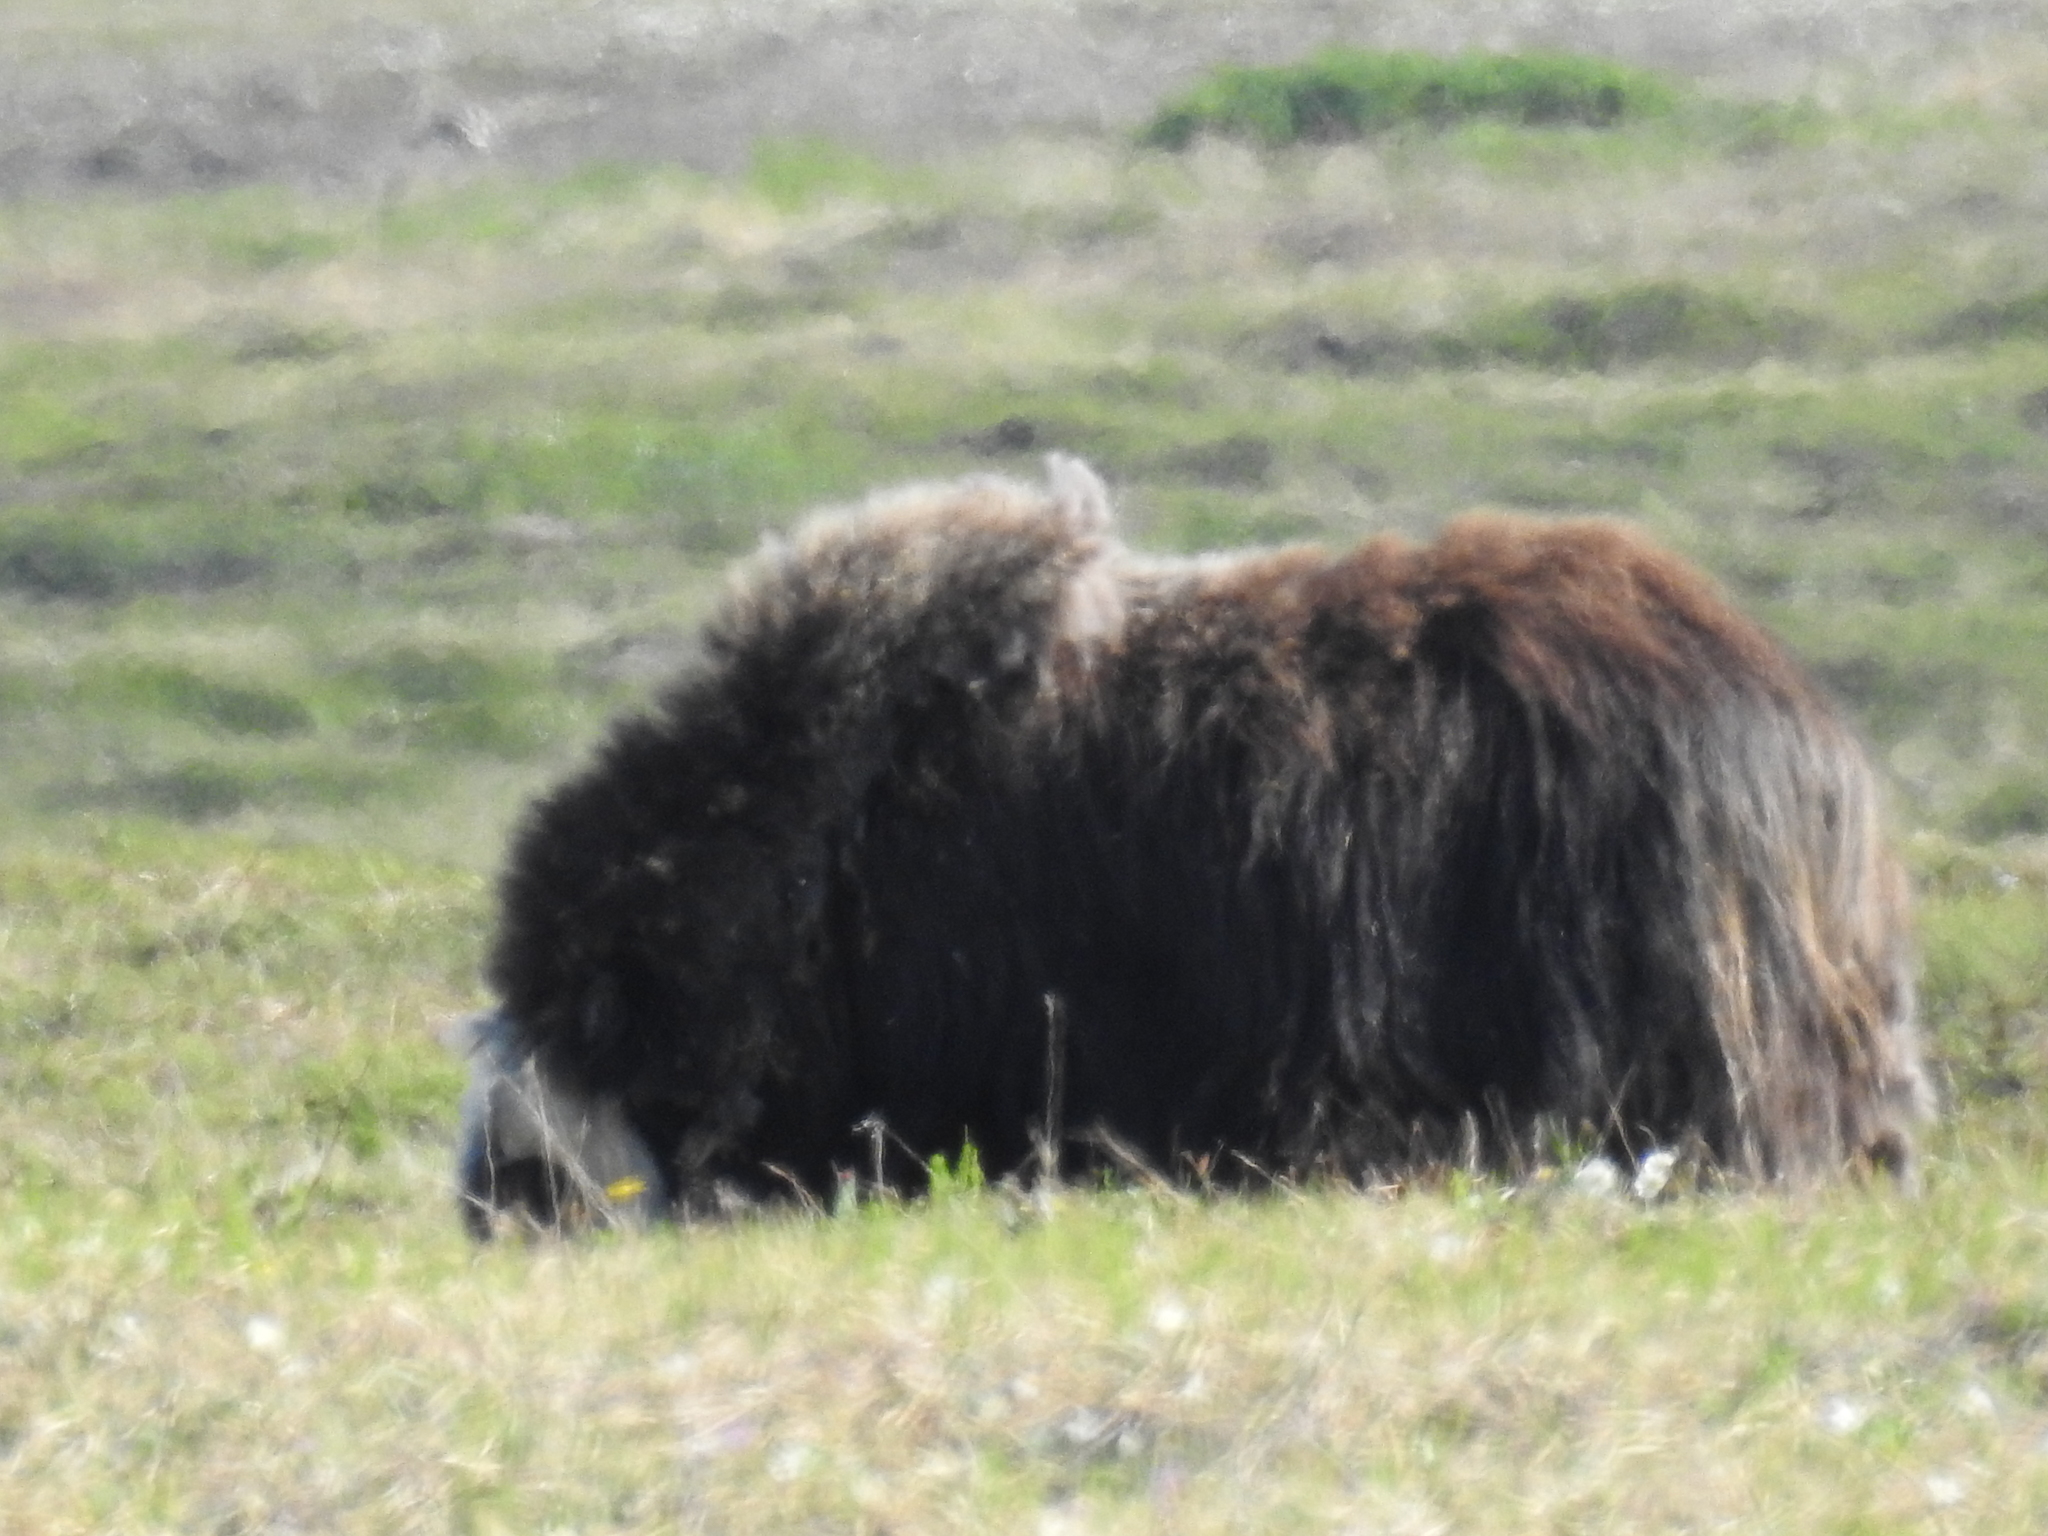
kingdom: Animalia
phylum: Chordata
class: Mammalia
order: Artiodactyla
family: Bovidae
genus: Ovibos
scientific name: Ovibos moschatus
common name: Muskox
